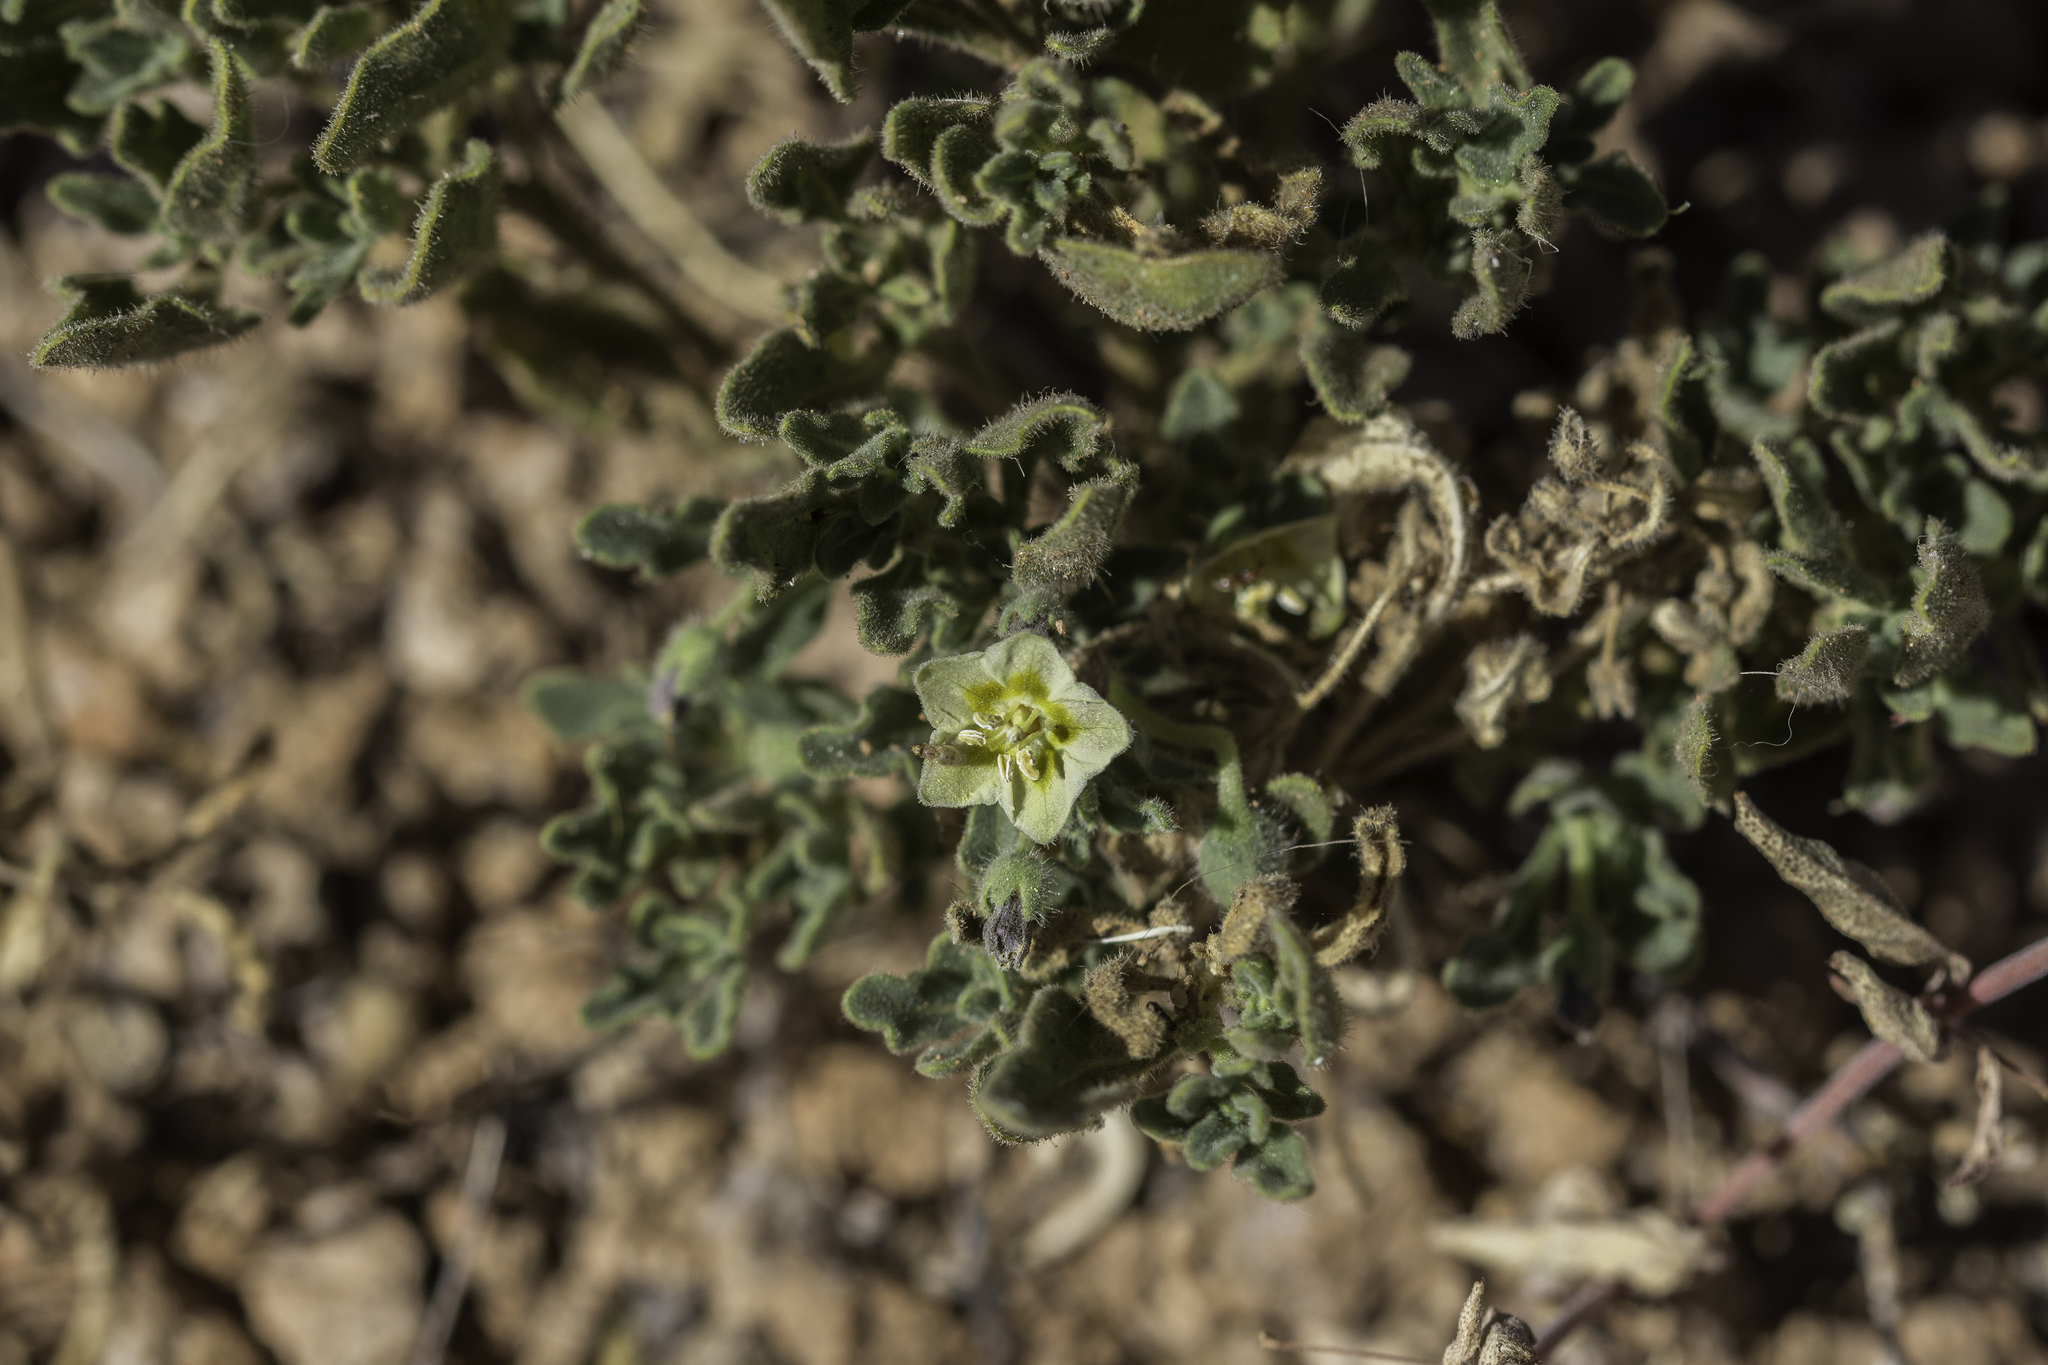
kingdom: Plantae
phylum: Tracheophyta
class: Magnoliopsida
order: Solanales
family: Solanaceae
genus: Chamaesaracha
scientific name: Chamaesaracha sordida
